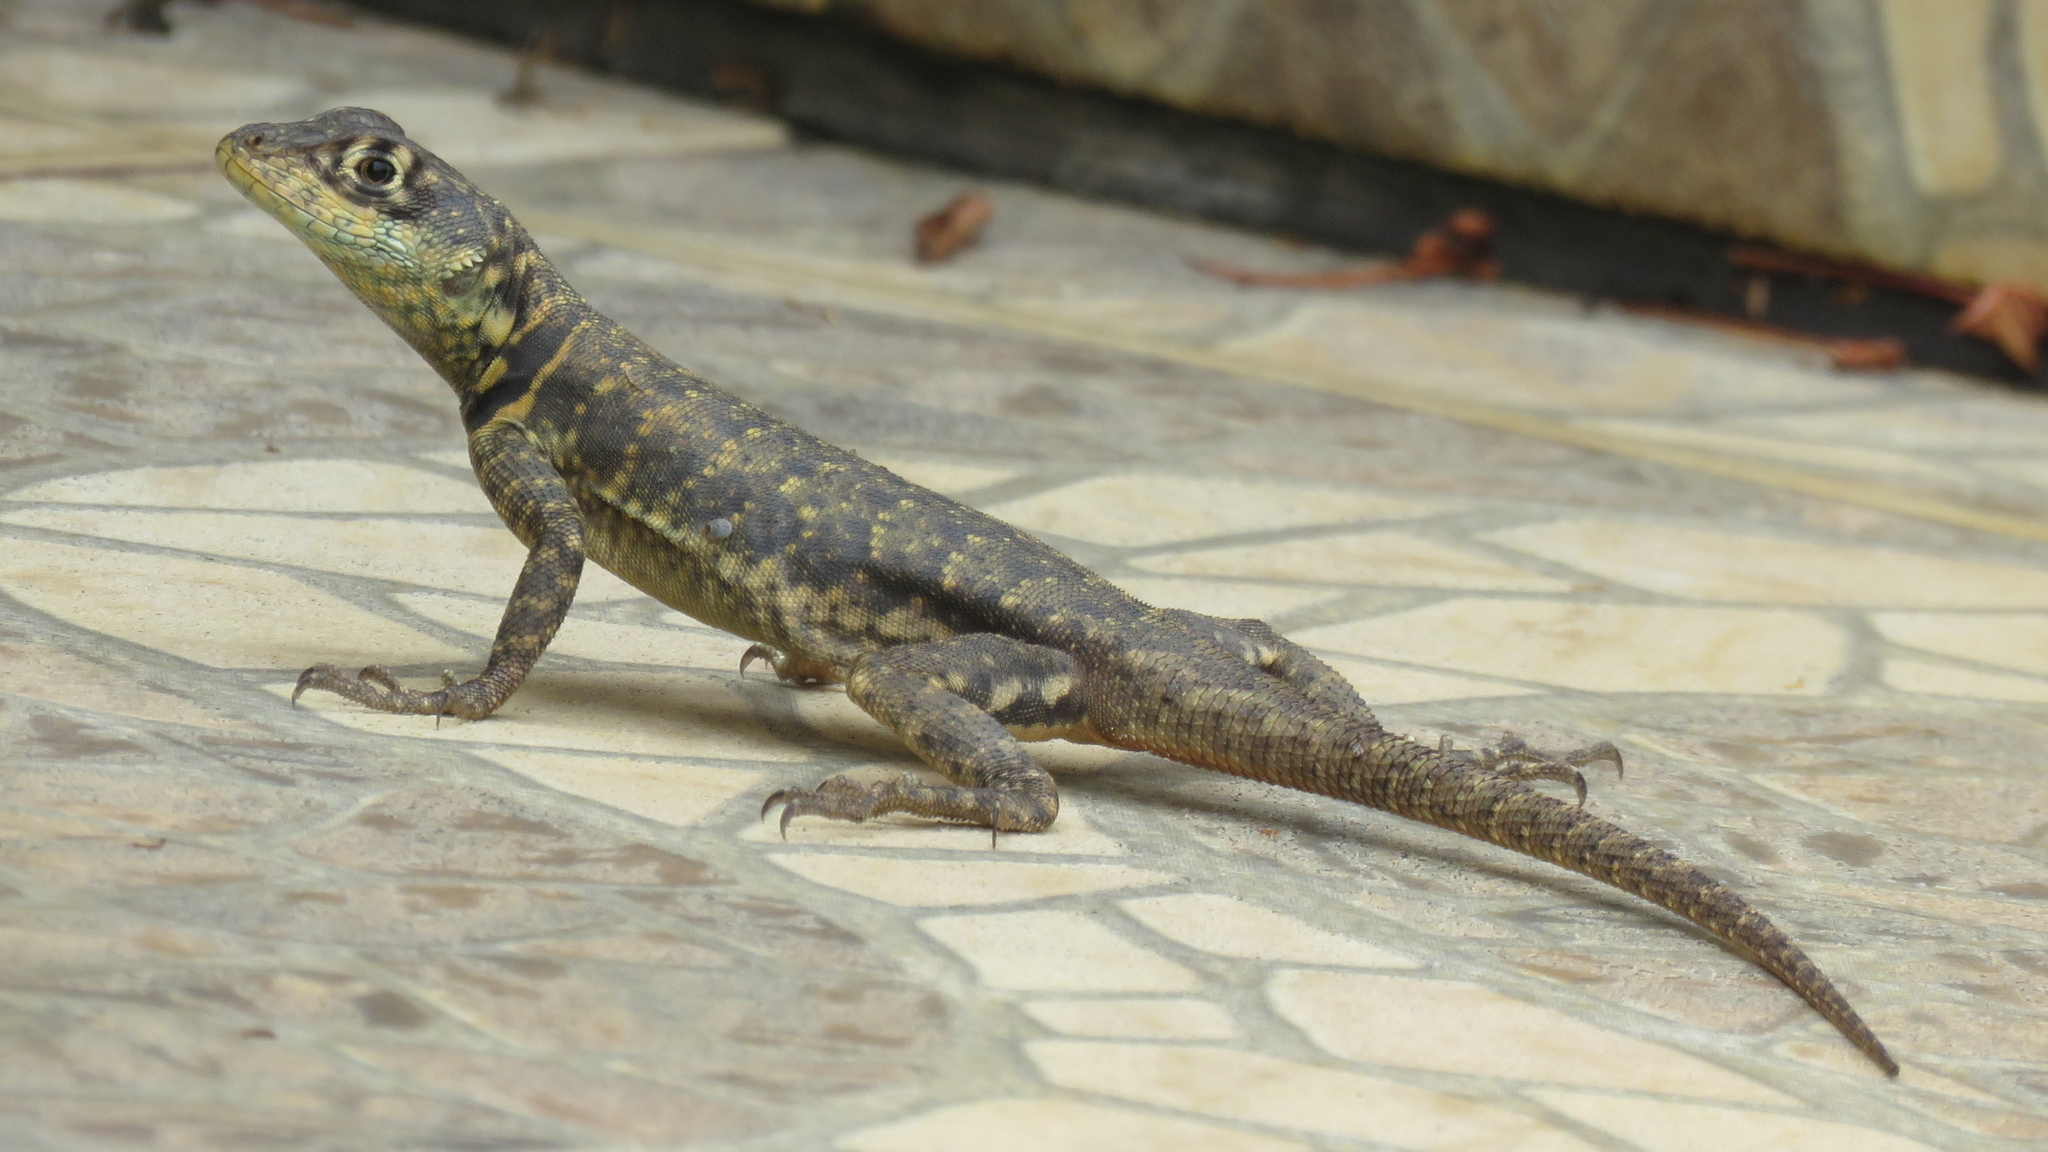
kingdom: Animalia
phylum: Chordata
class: Squamata
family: Tropiduridae
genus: Tropidurus
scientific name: Tropidurus torquatus
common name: Amazon lava lizard
